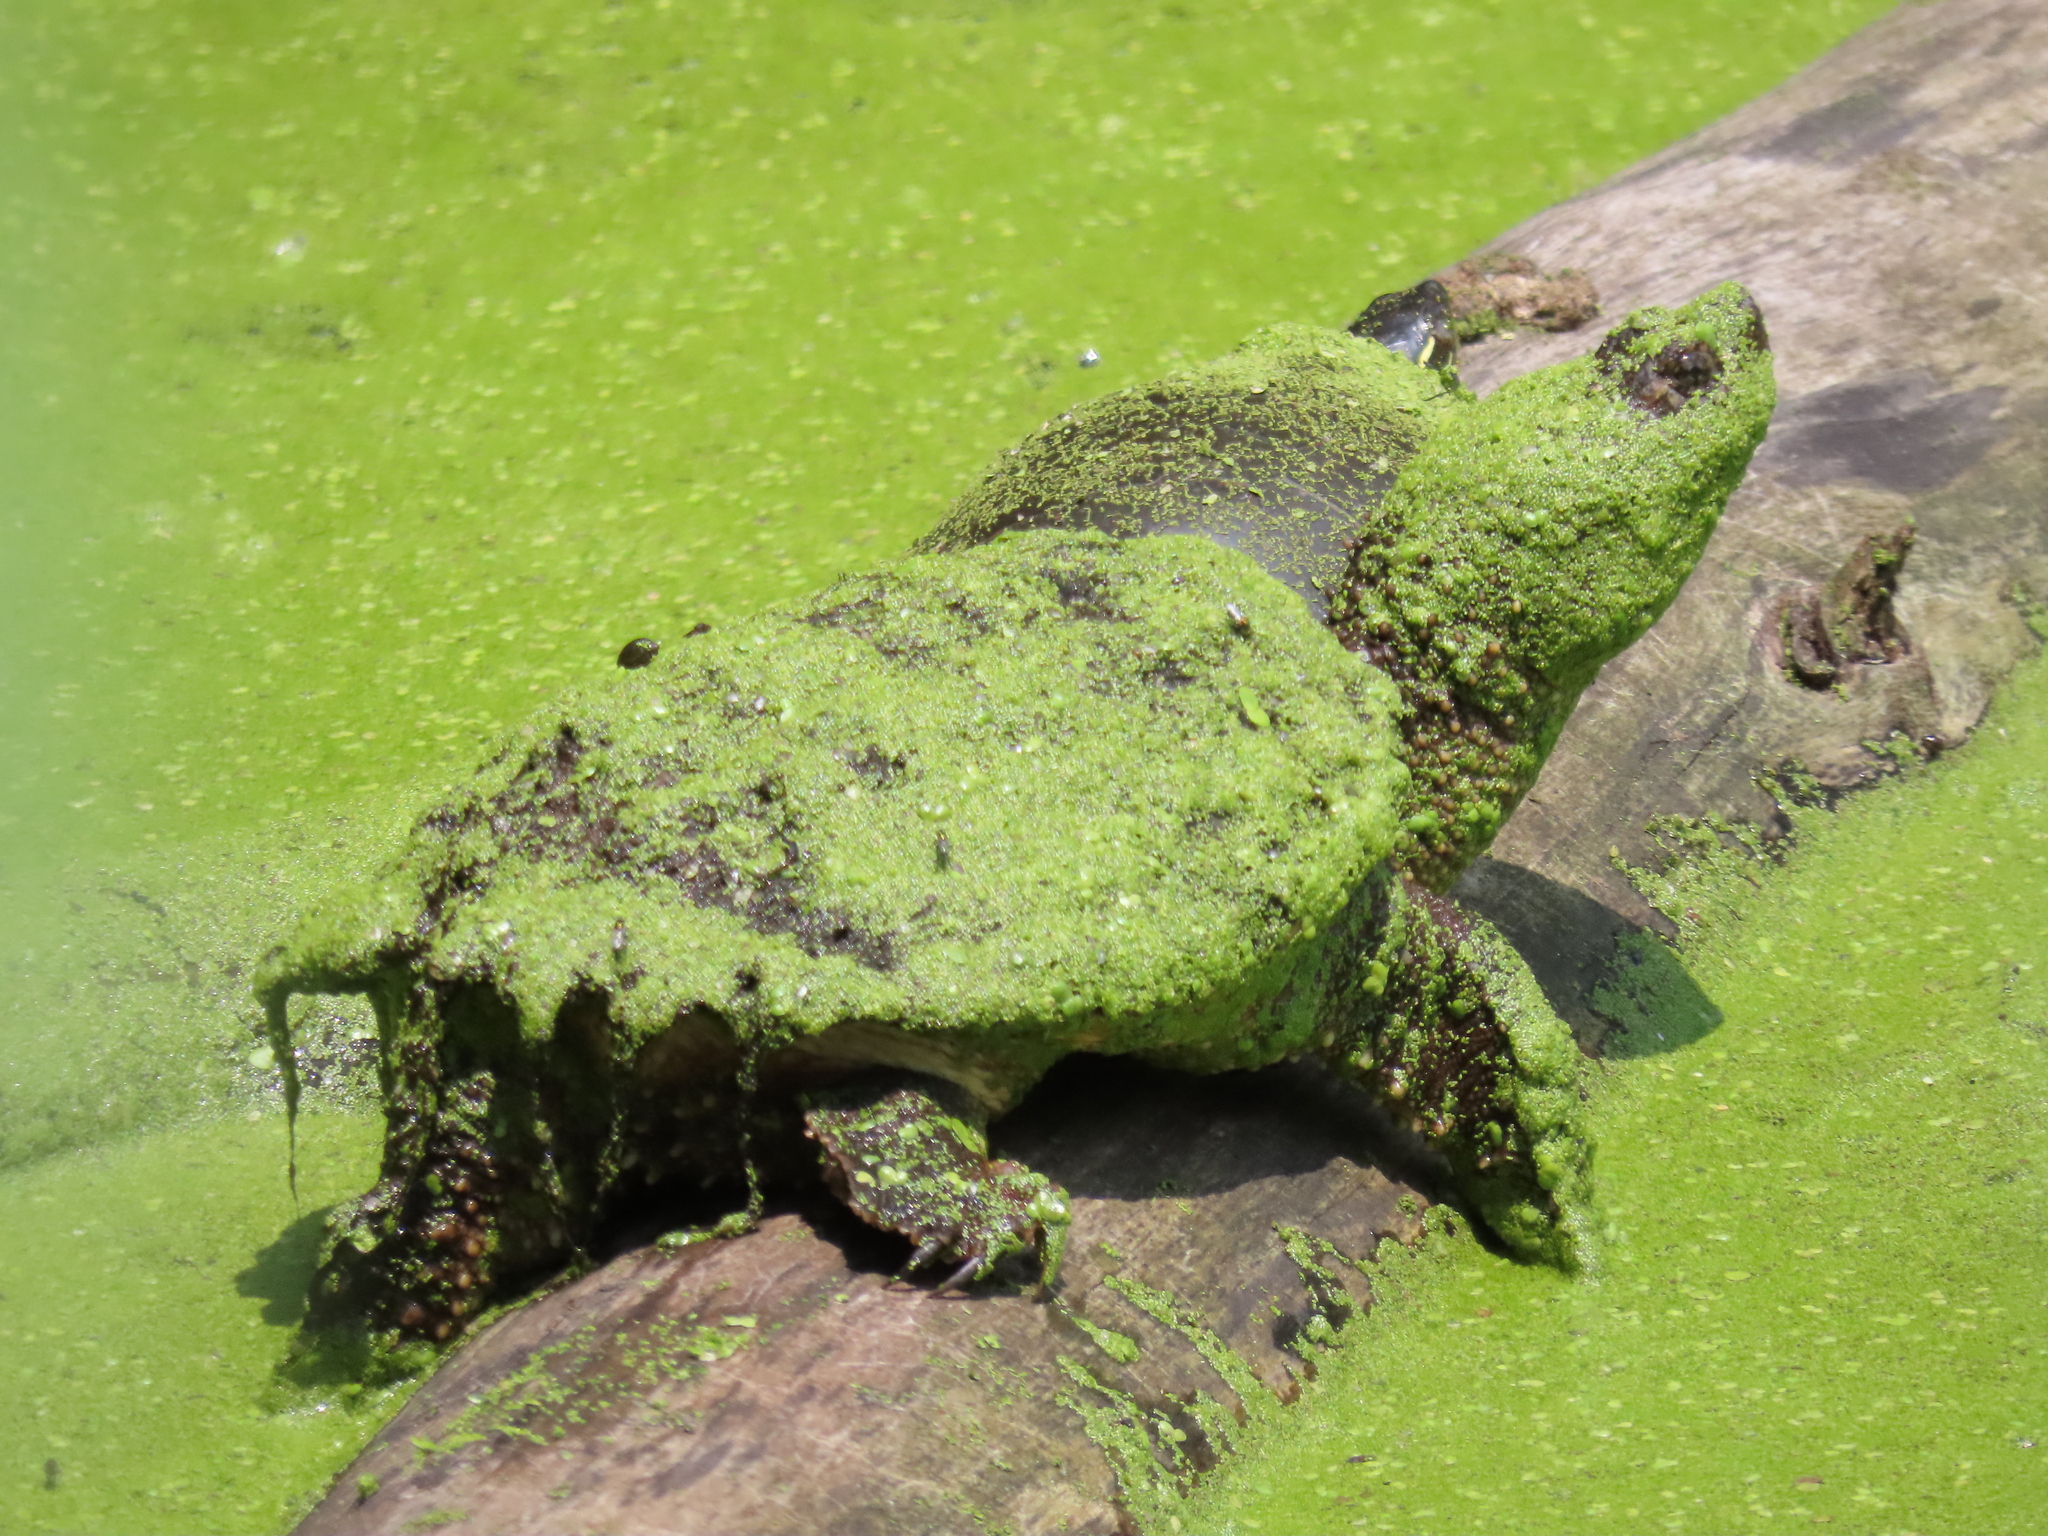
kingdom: Animalia
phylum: Chordata
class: Testudines
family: Chelydridae
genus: Chelydra
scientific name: Chelydra serpentina
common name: Common snapping turtle
